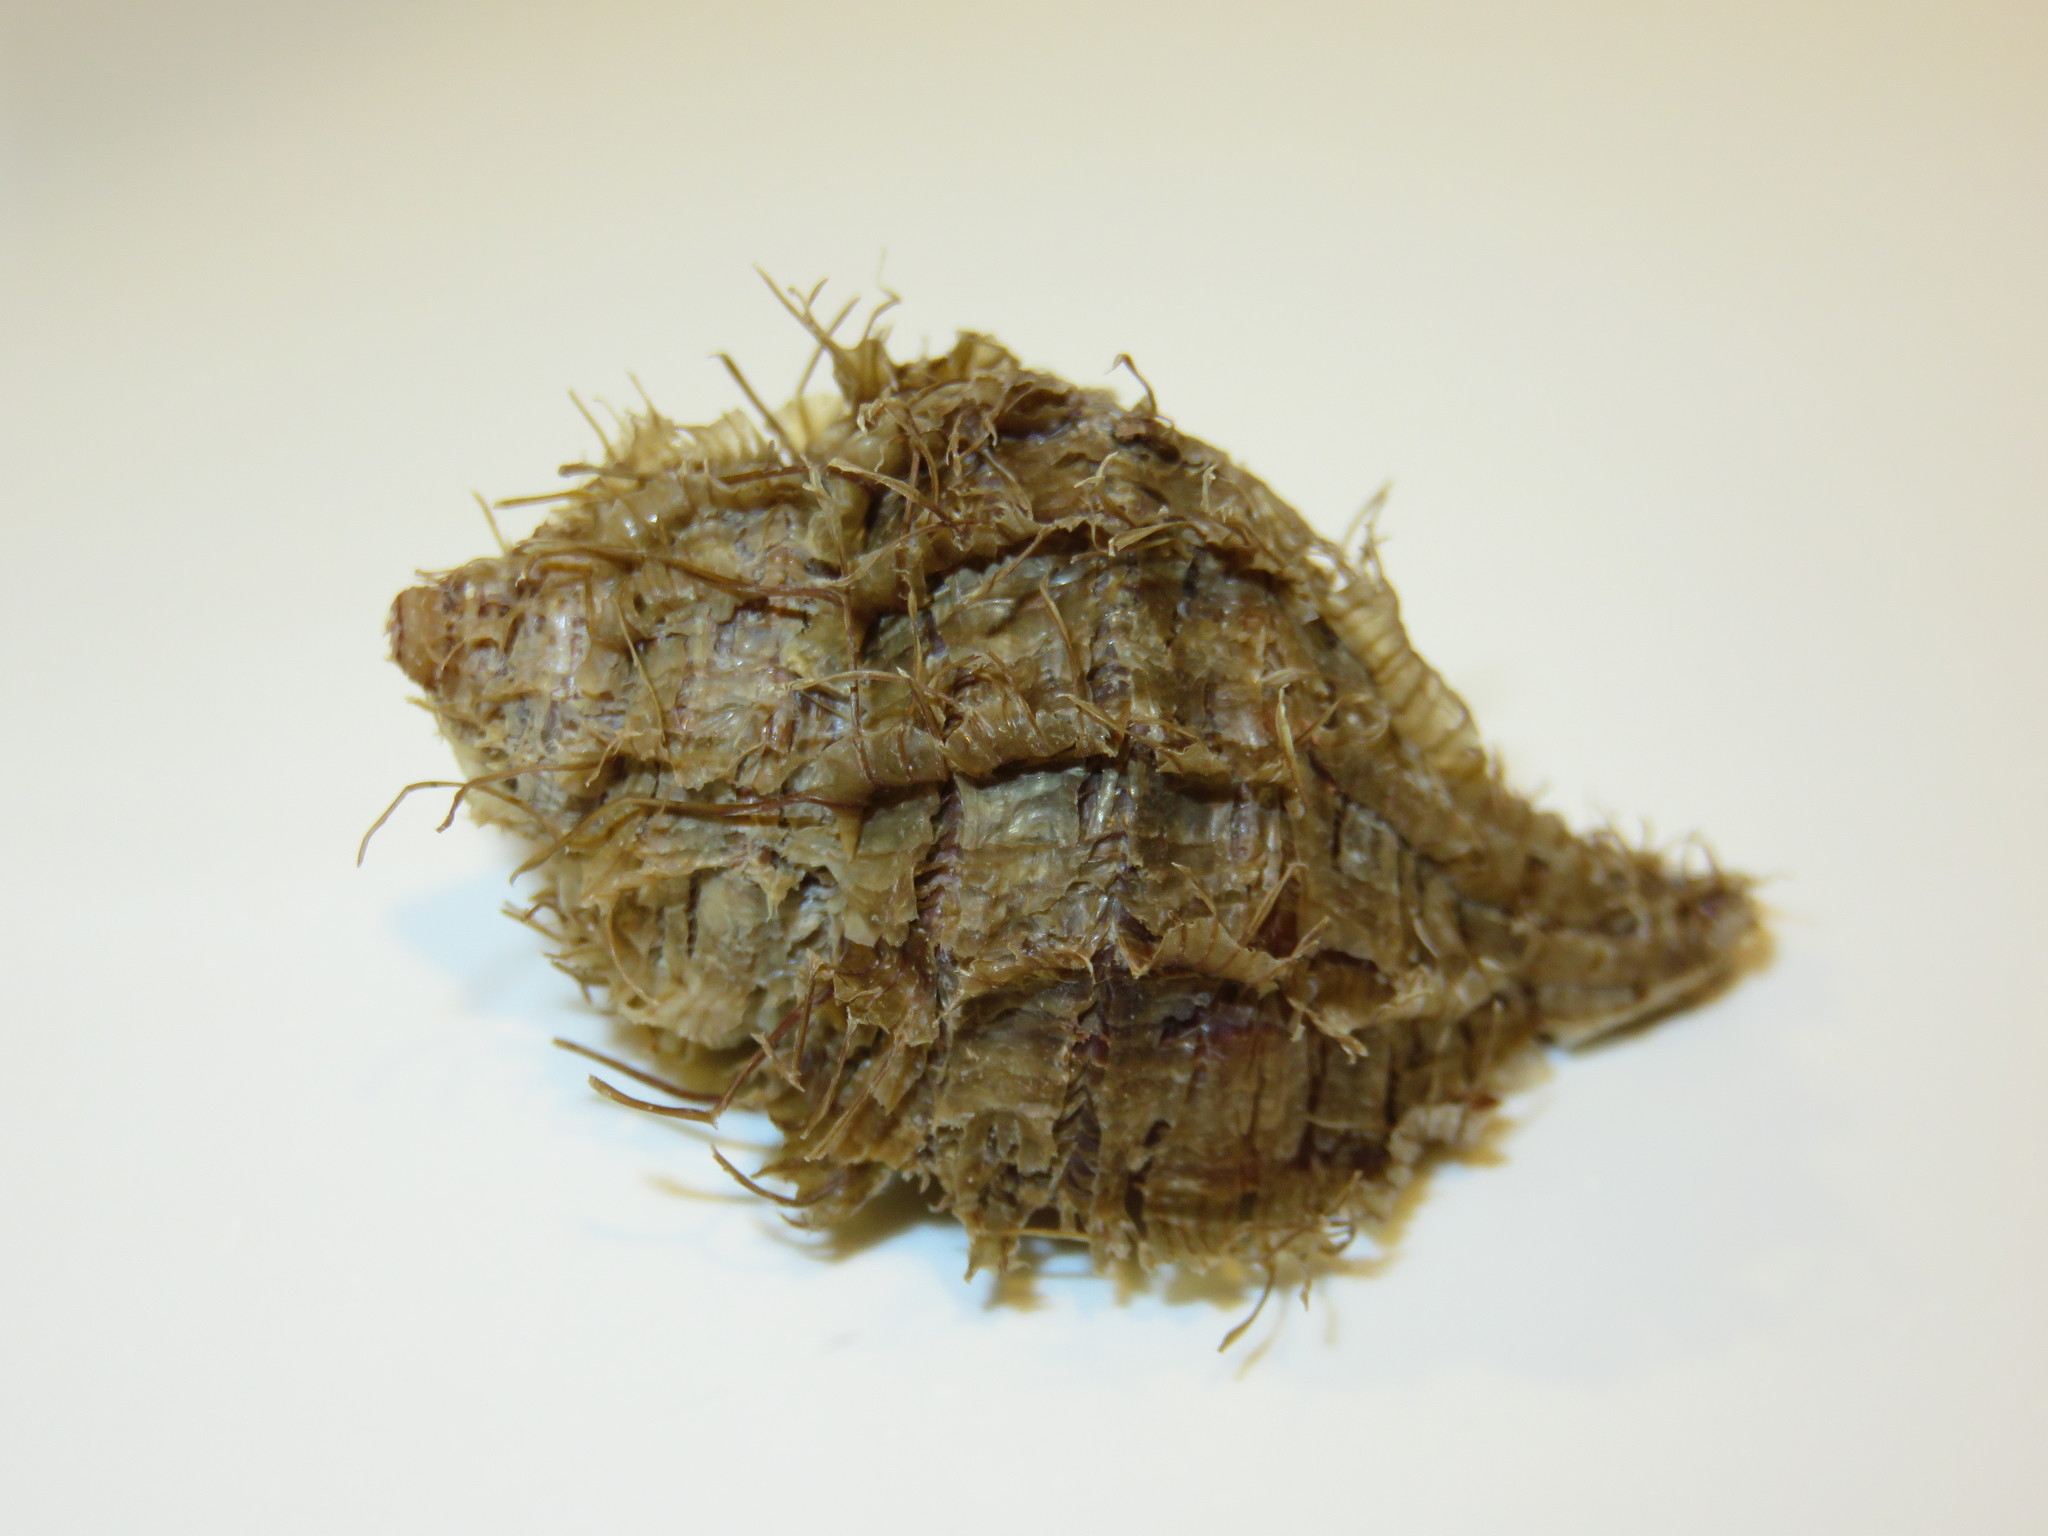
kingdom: Animalia
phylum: Mollusca
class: Gastropoda
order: Littorinimorpha
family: Cymatiidae
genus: Monoplex
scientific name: Monoplex parthenopeus
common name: Giant triton
